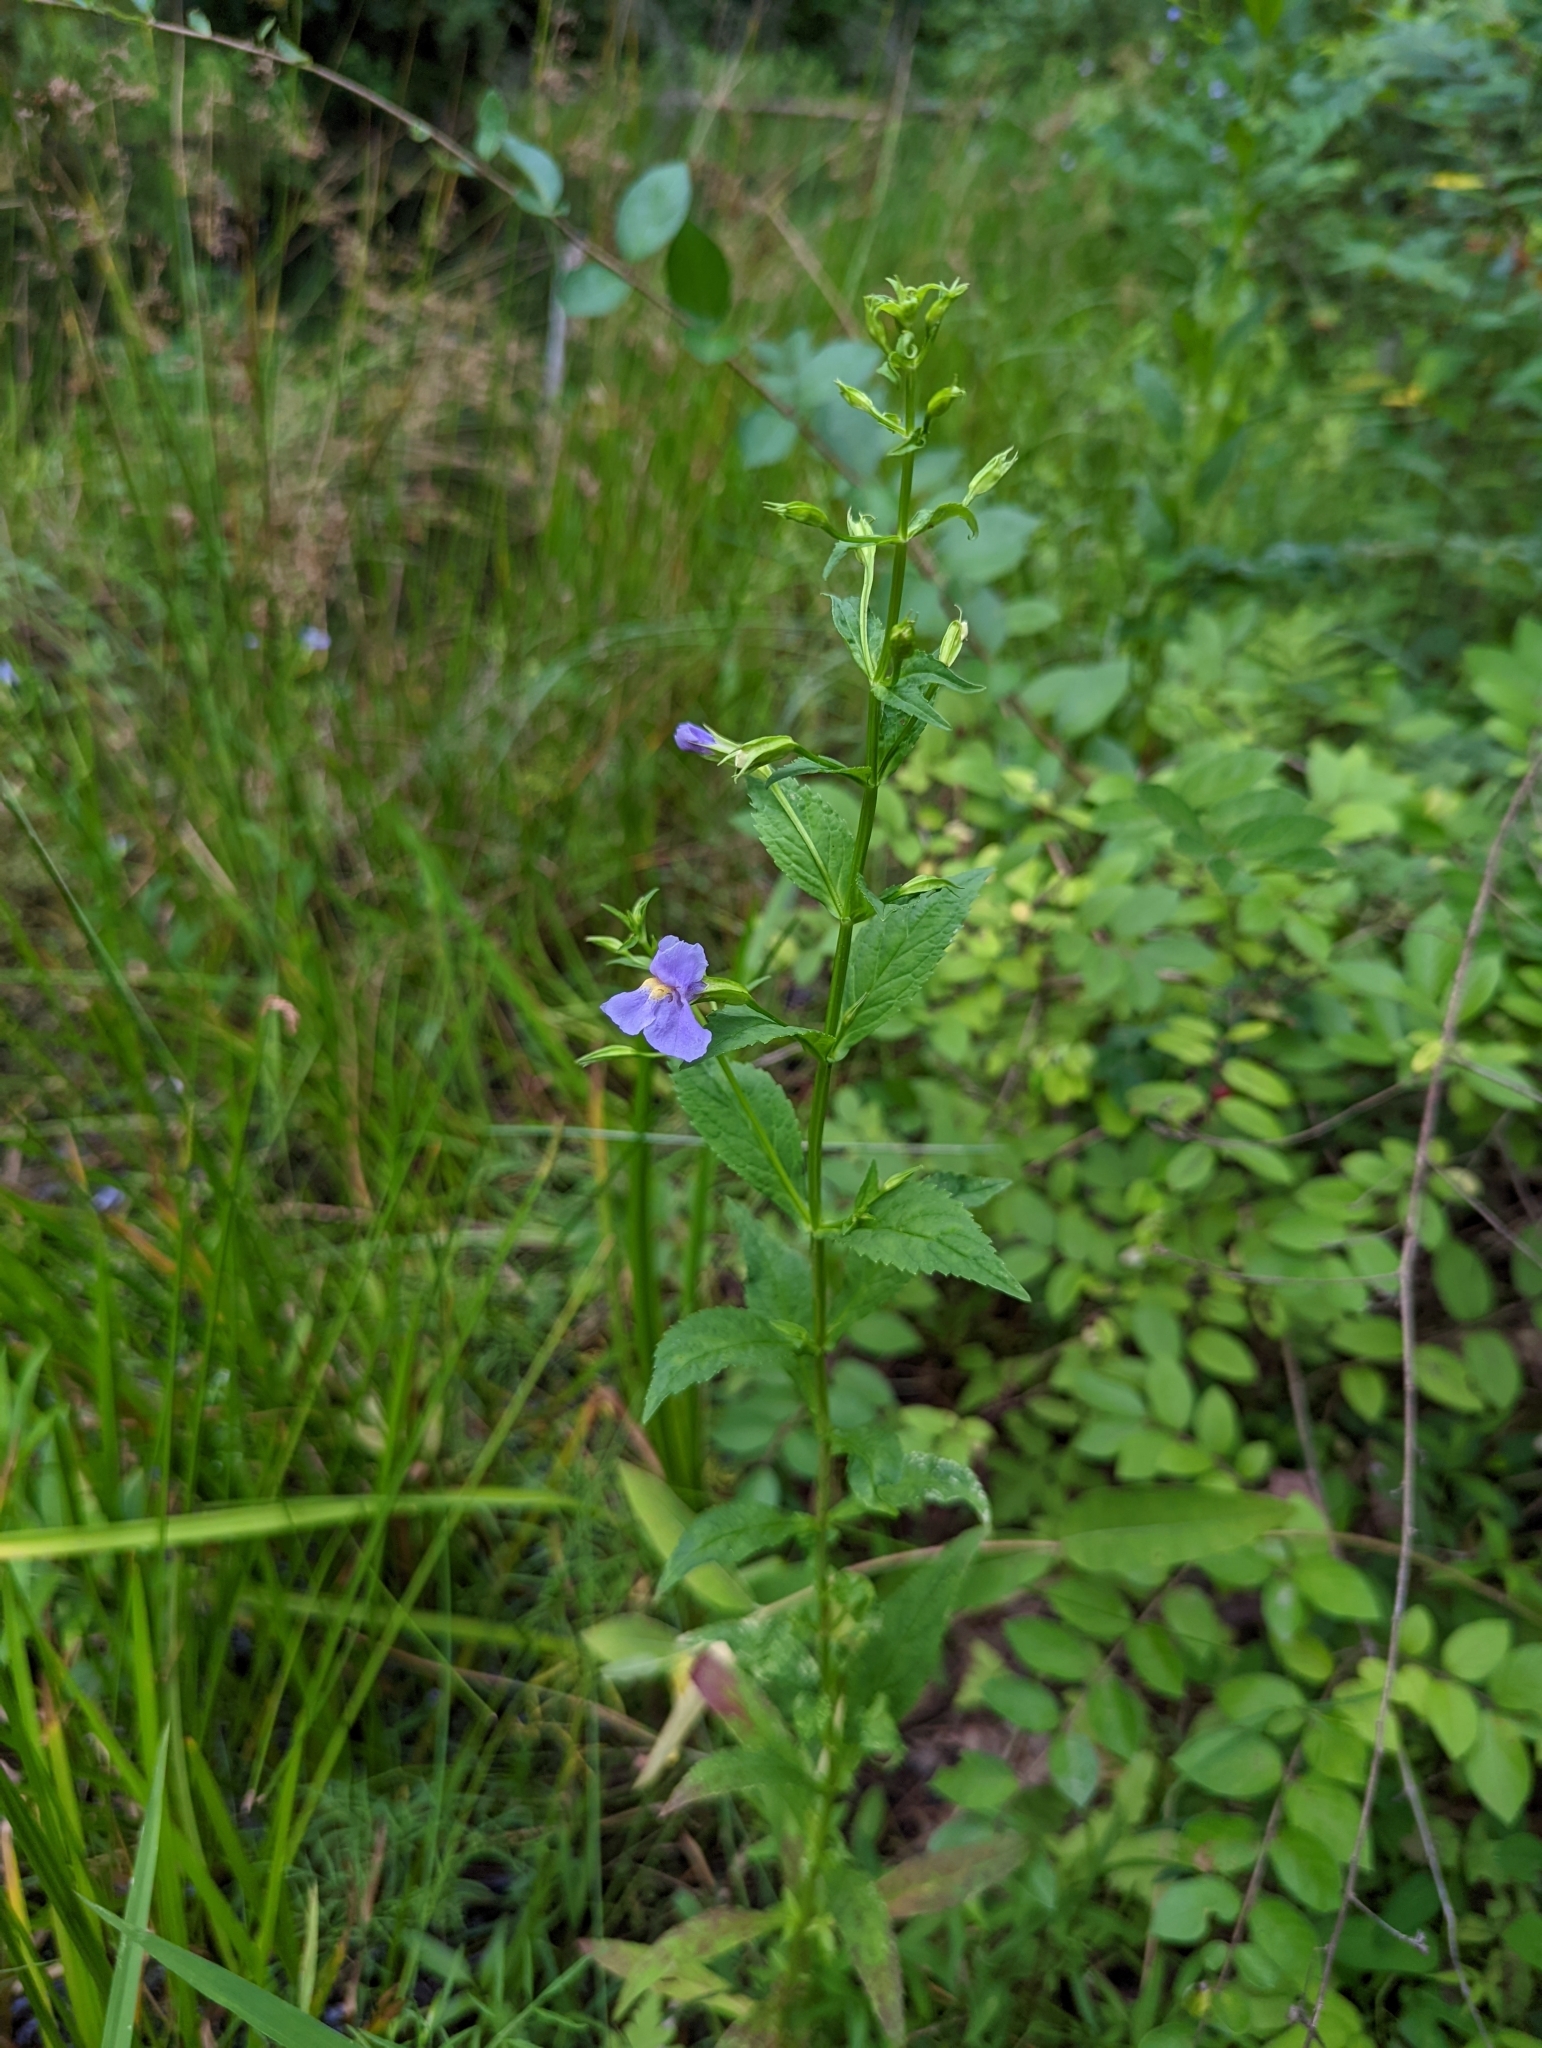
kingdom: Plantae
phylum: Tracheophyta
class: Magnoliopsida
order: Lamiales
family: Phrymaceae
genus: Mimulus
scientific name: Mimulus ringens
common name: Allegheny monkeyflower
